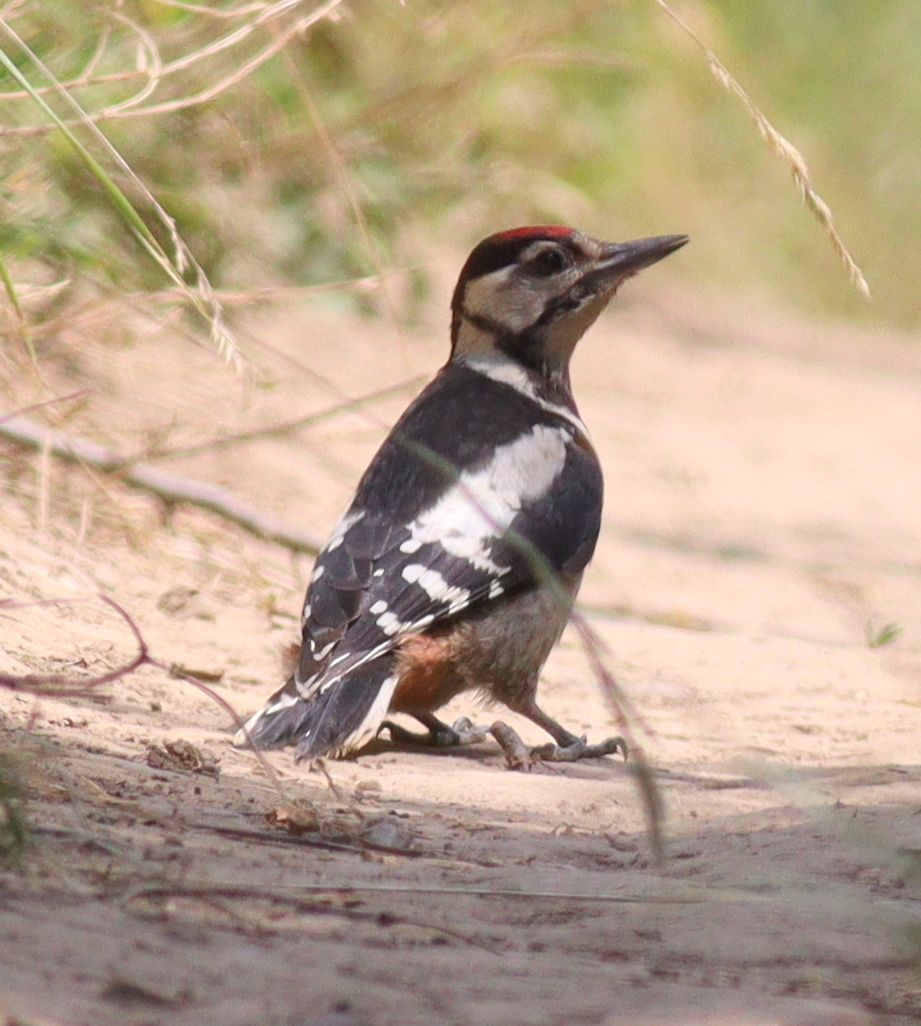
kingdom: Animalia
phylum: Chordata
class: Aves
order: Piciformes
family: Picidae
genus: Dendrocopos
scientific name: Dendrocopos major
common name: Great spotted woodpecker
